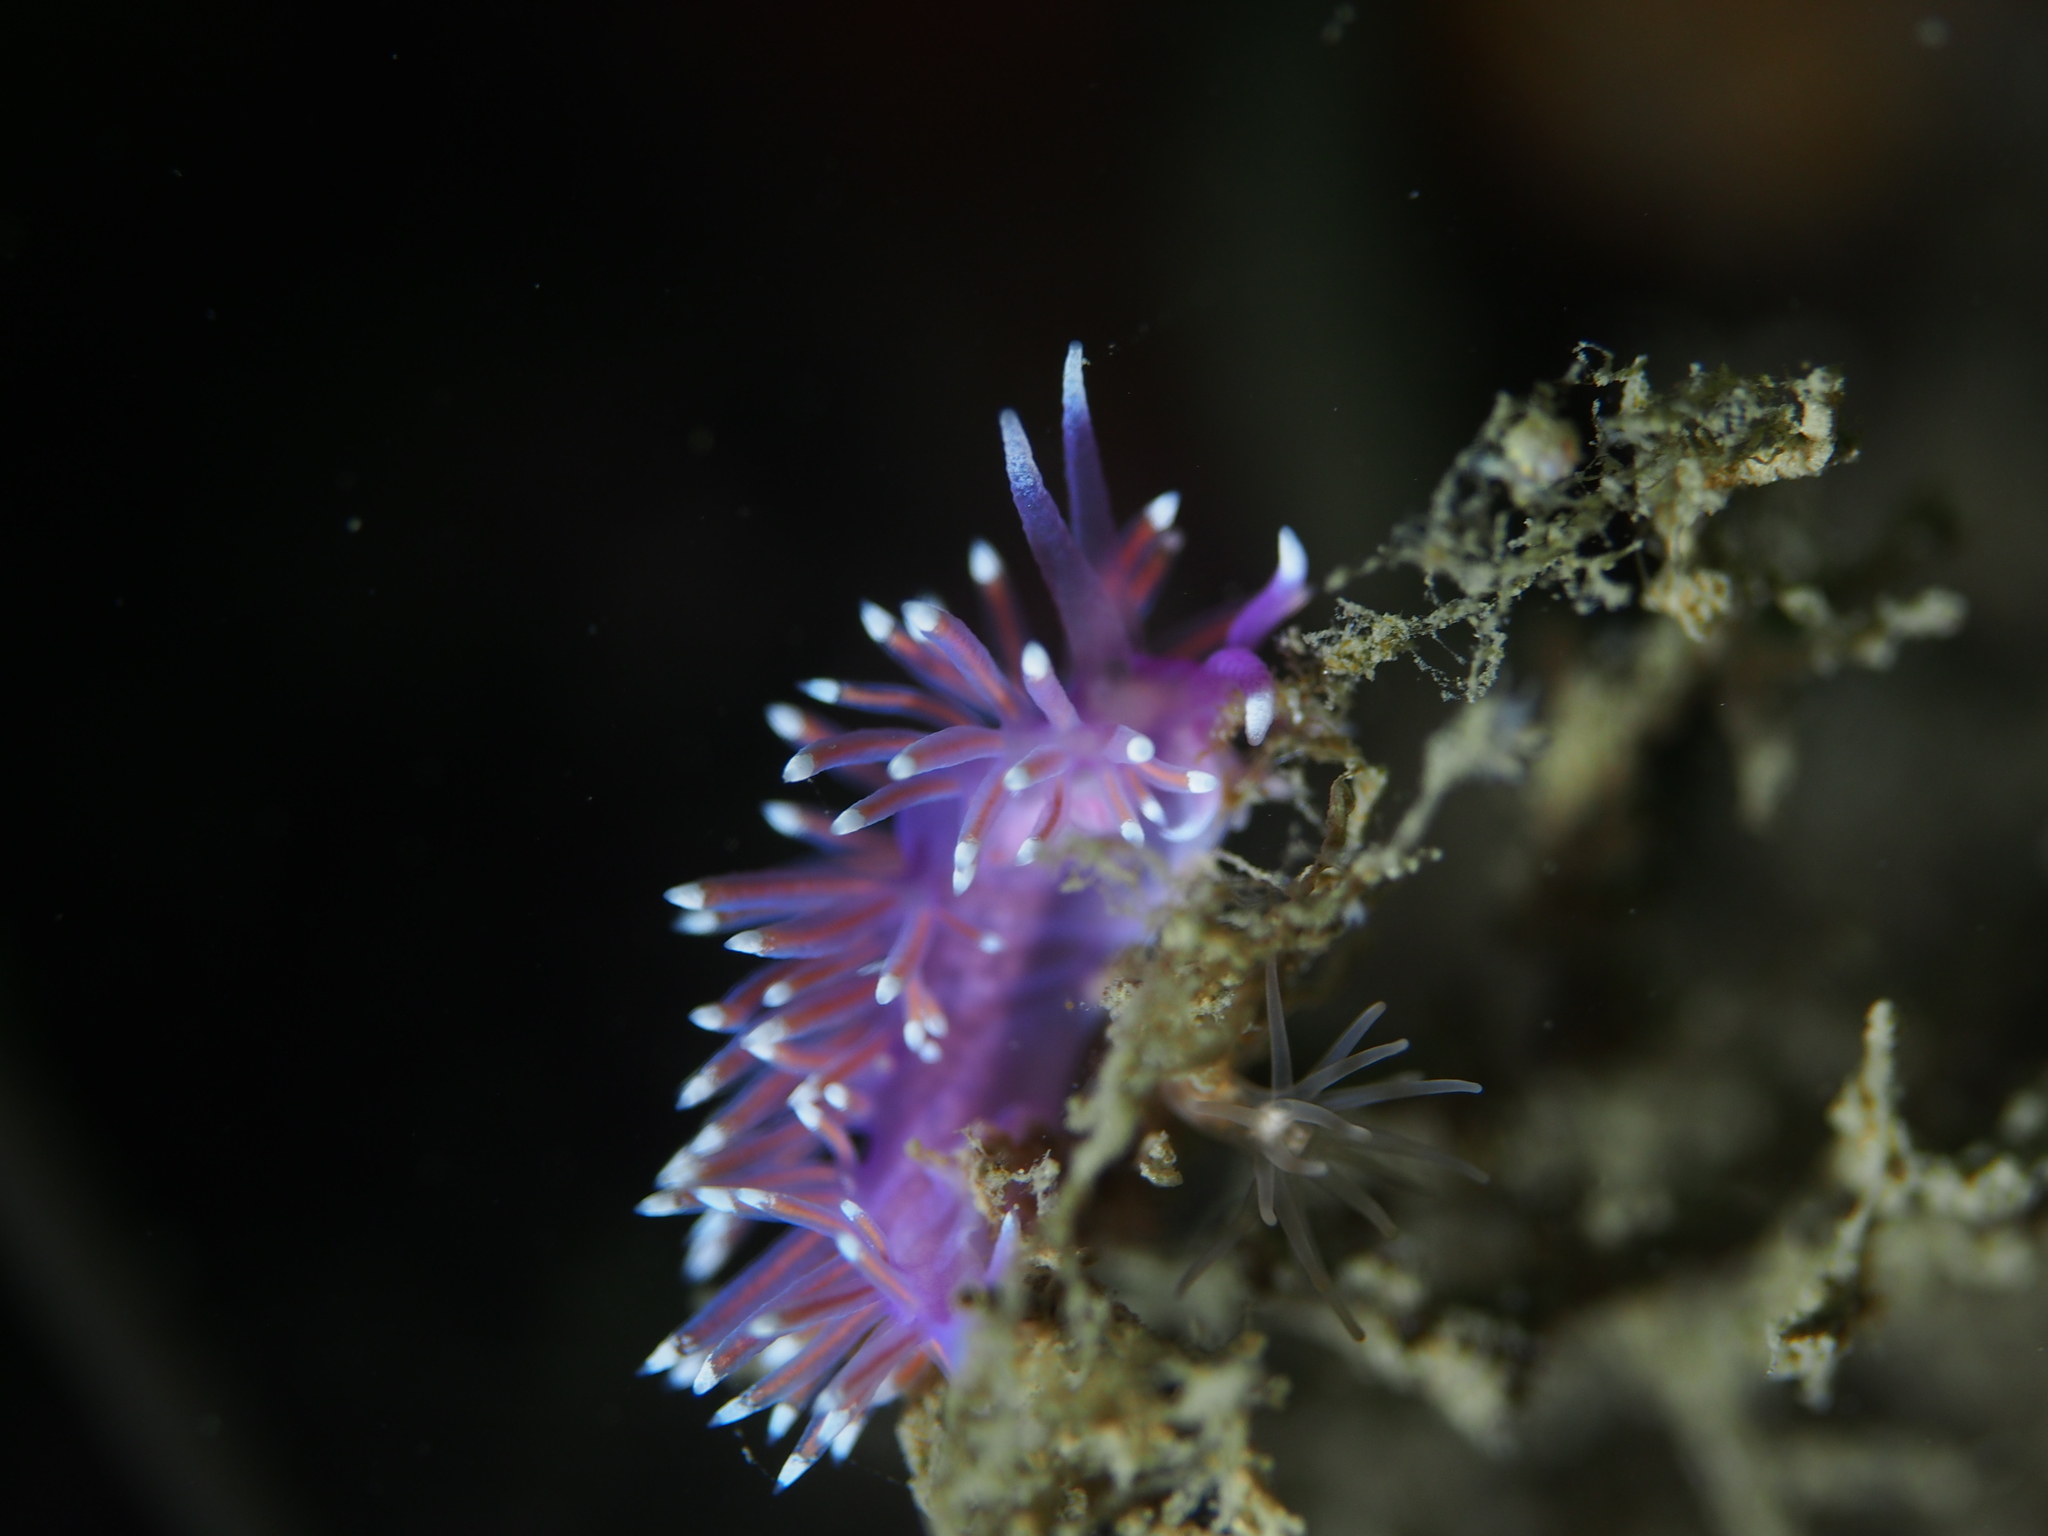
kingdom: Animalia
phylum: Mollusca
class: Gastropoda
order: Nudibranchia
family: Flabellinidae
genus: Edmundsella
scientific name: Edmundsella pedata
